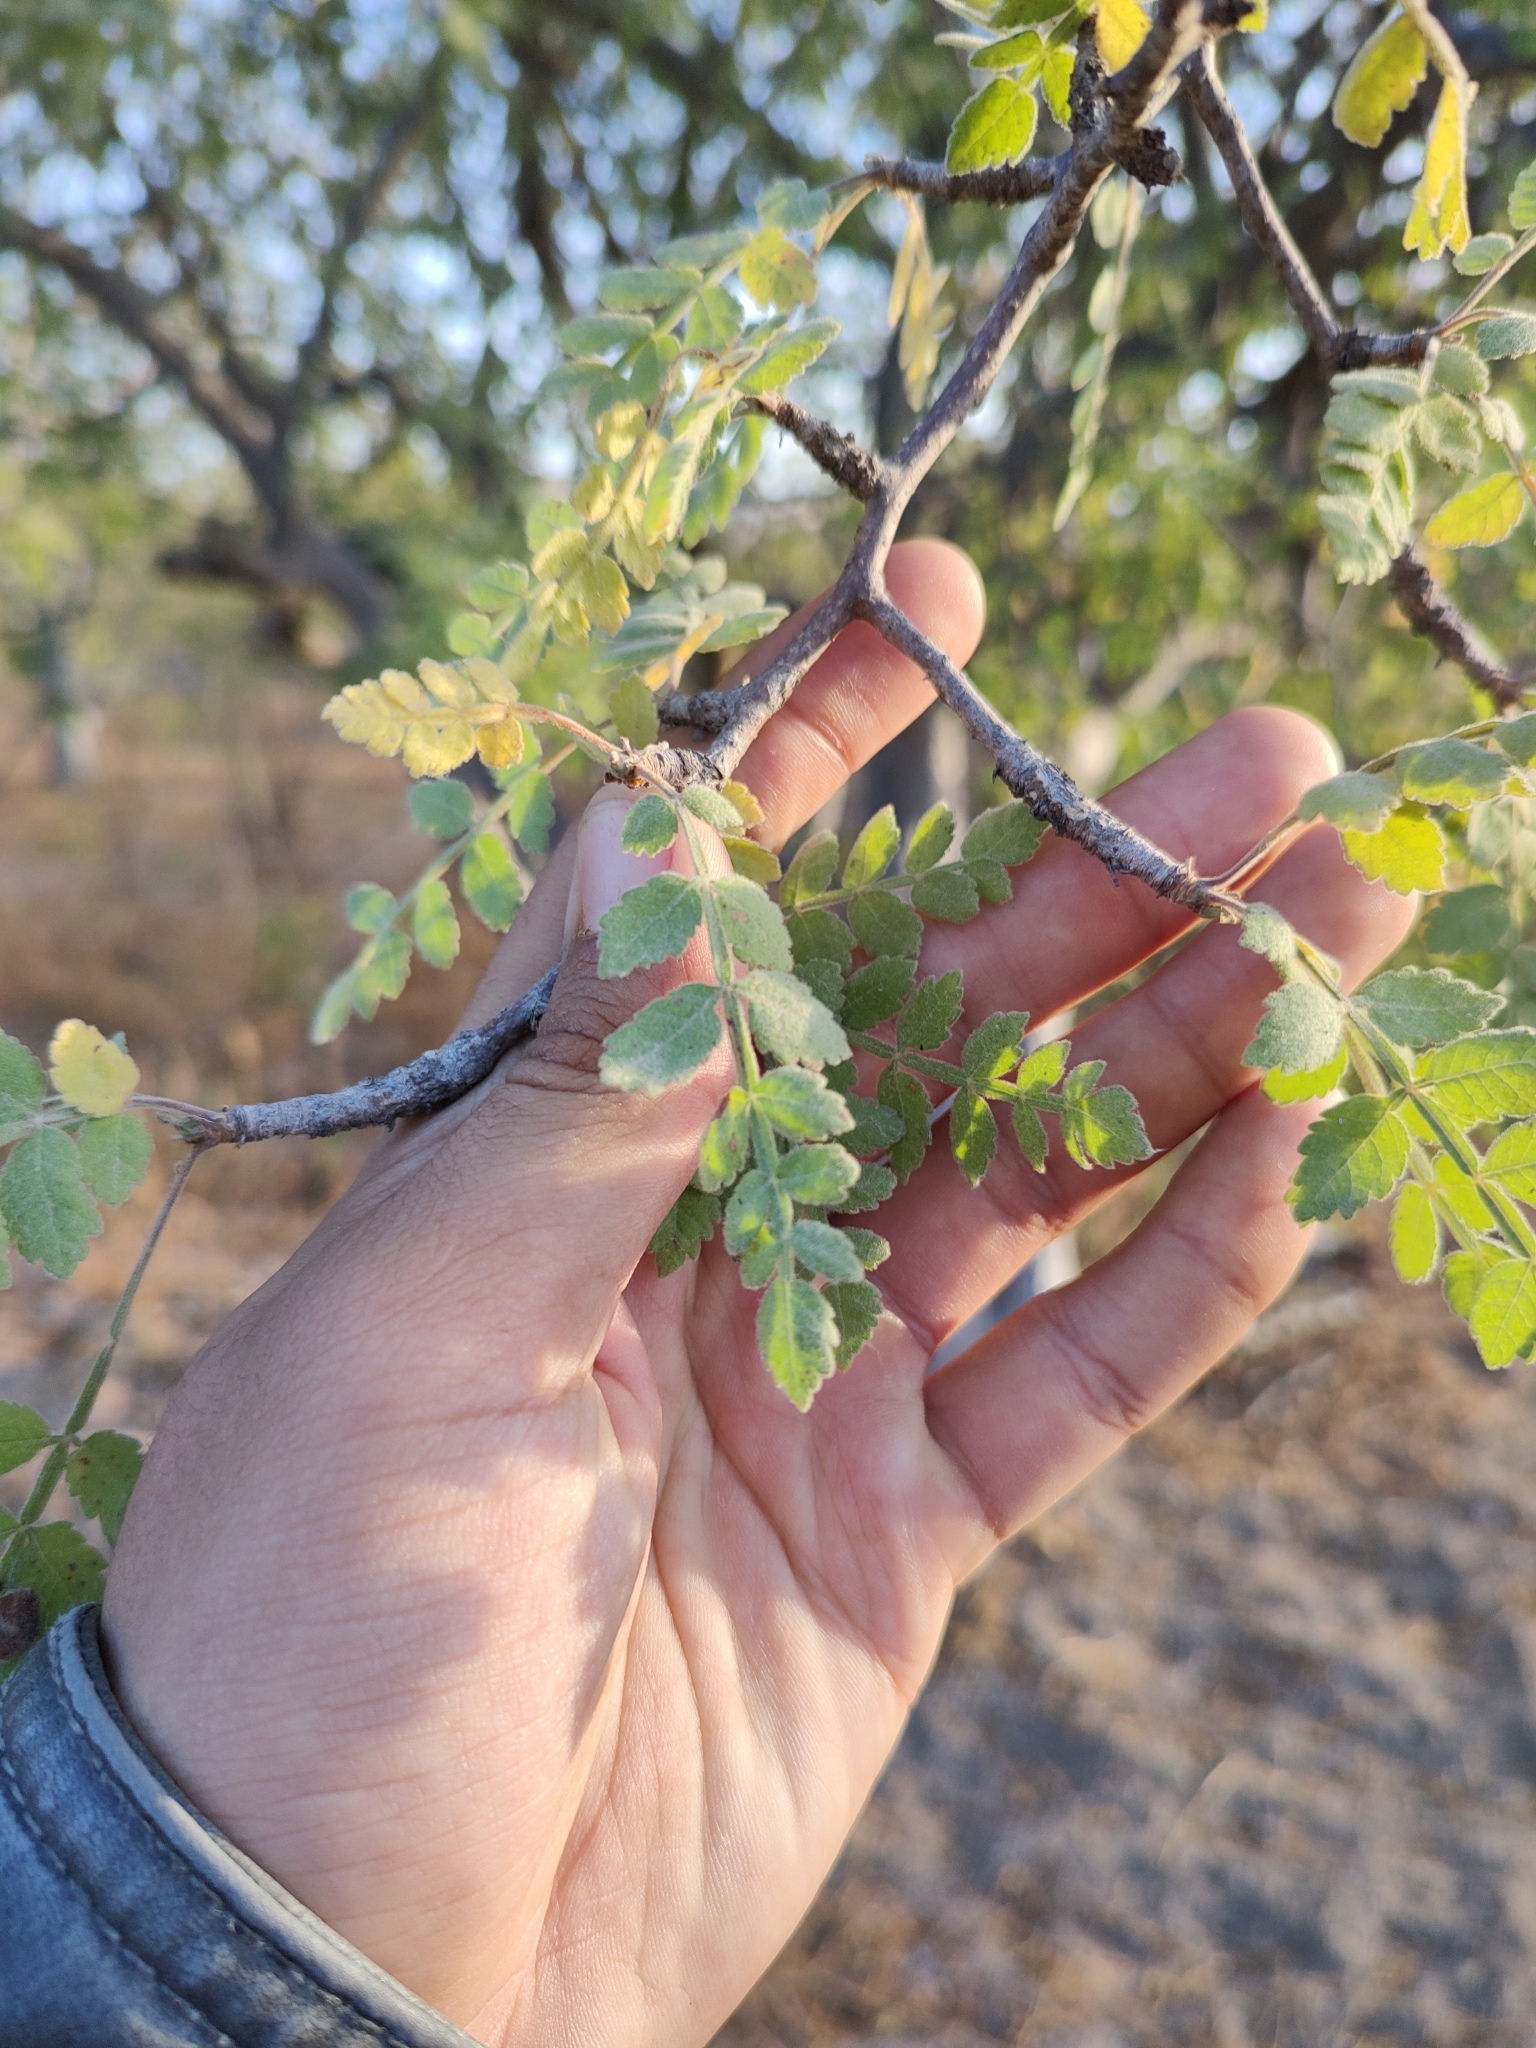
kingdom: Plantae
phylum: Tracheophyta
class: Magnoliopsida
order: Sapindales
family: Burseraceae
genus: Bursera
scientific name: Bursera filicifolia
